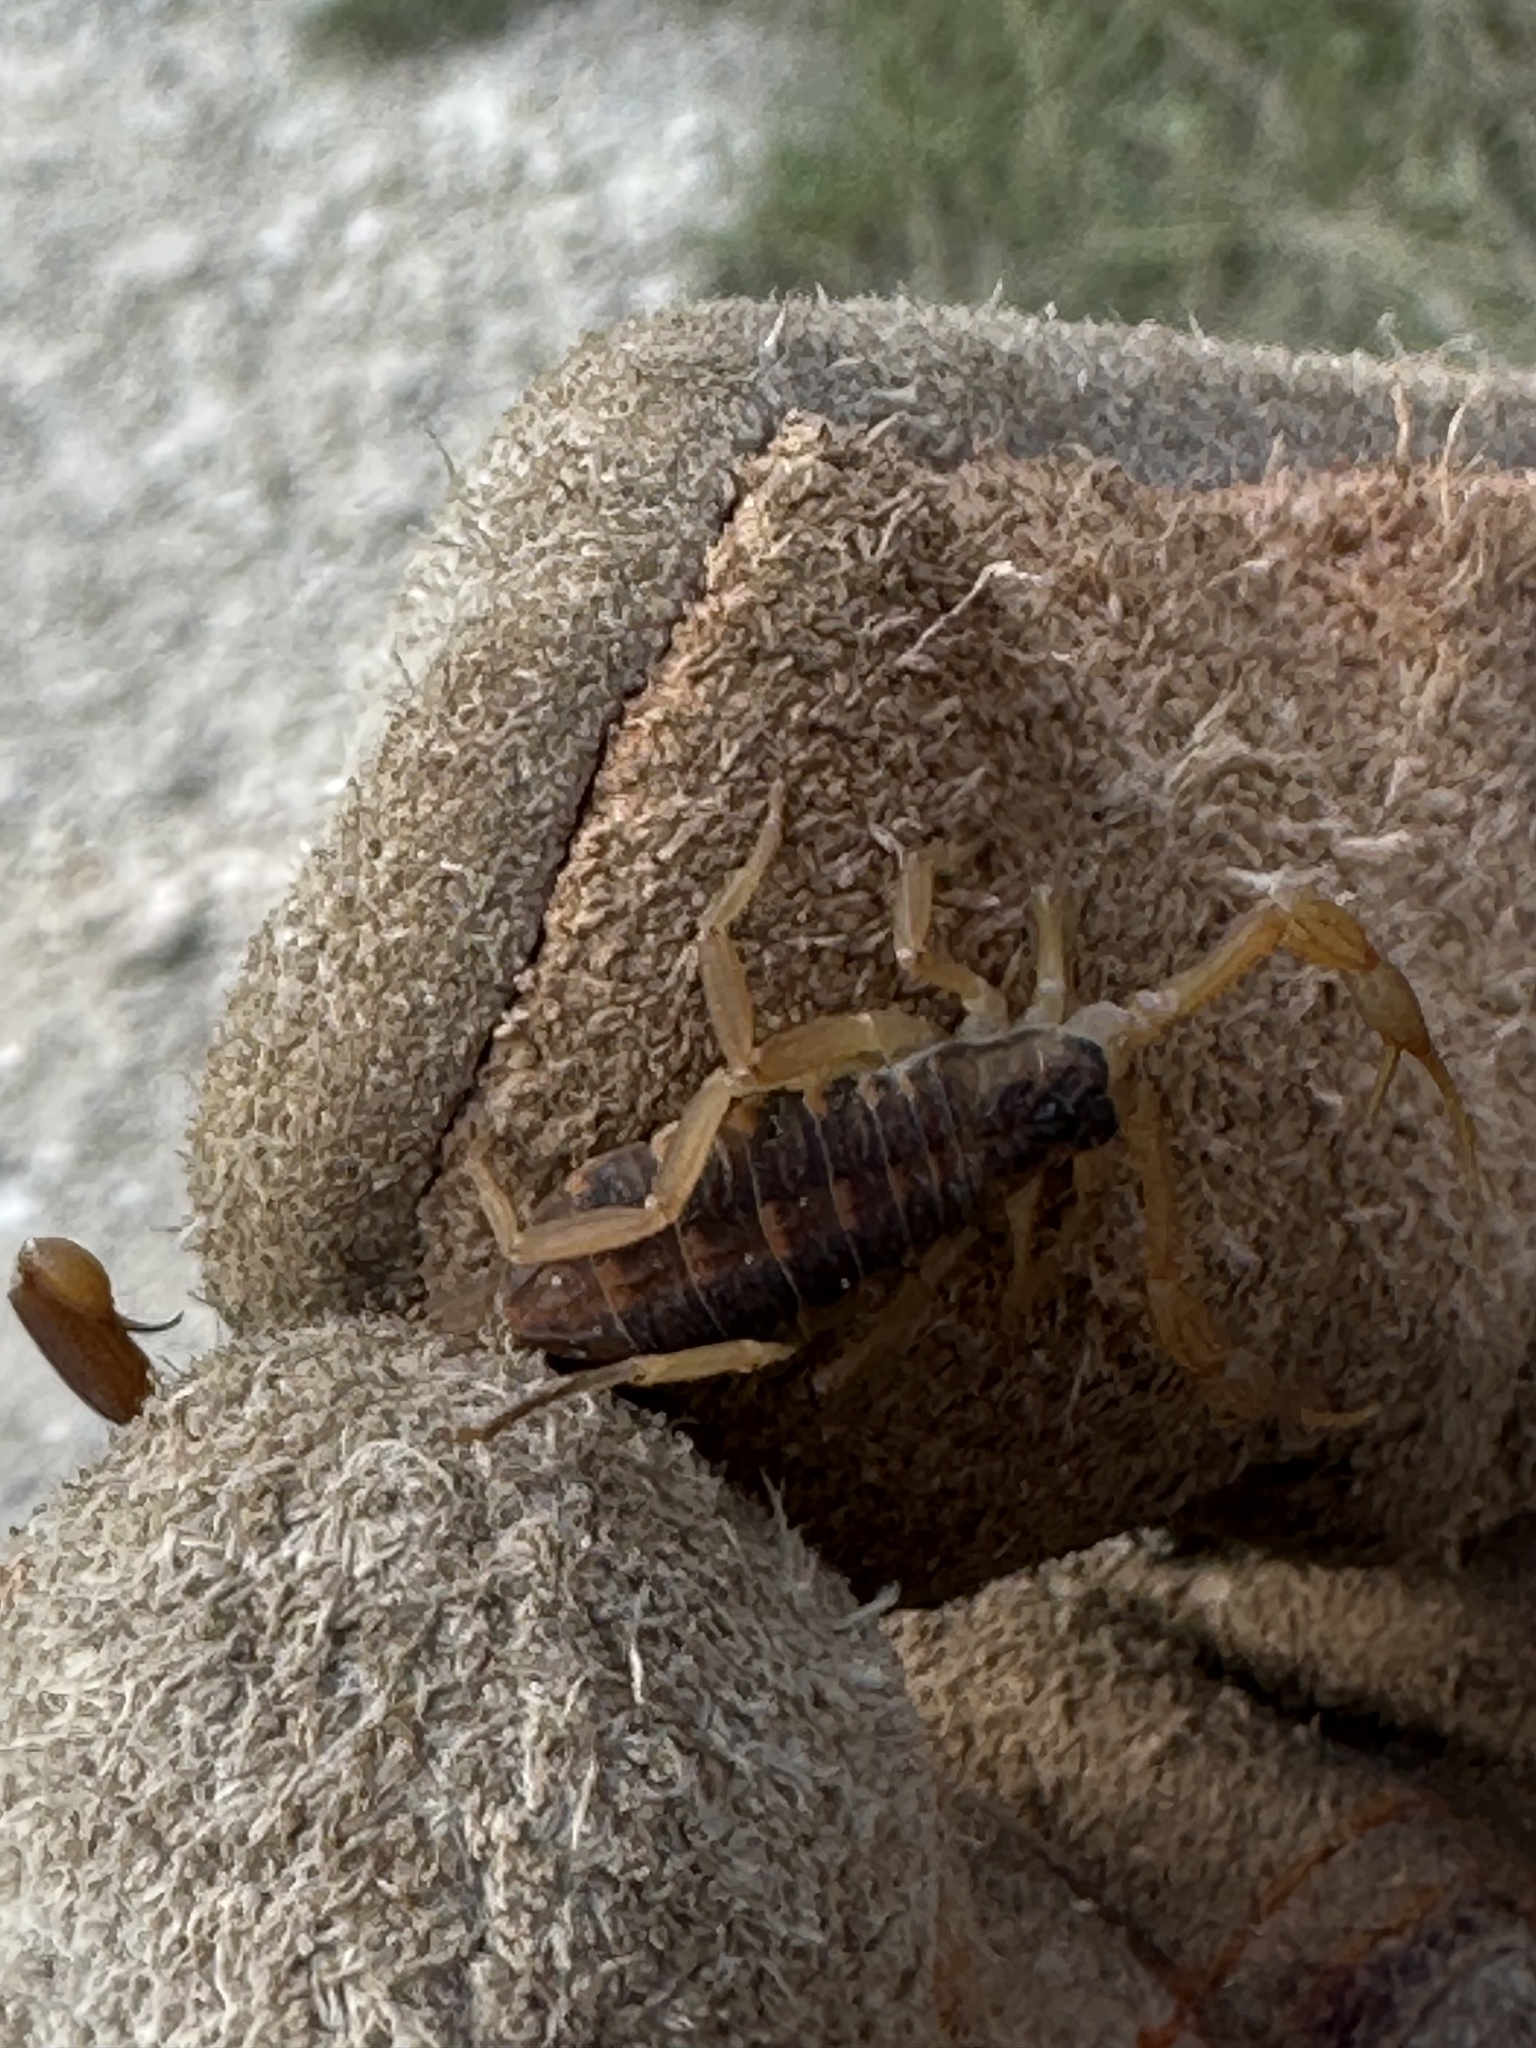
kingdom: Animalia
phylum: Arthropoda
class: Arachnida
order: Scorpiones
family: Buthidae
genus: Centruroides
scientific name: Centruroides vittatus
